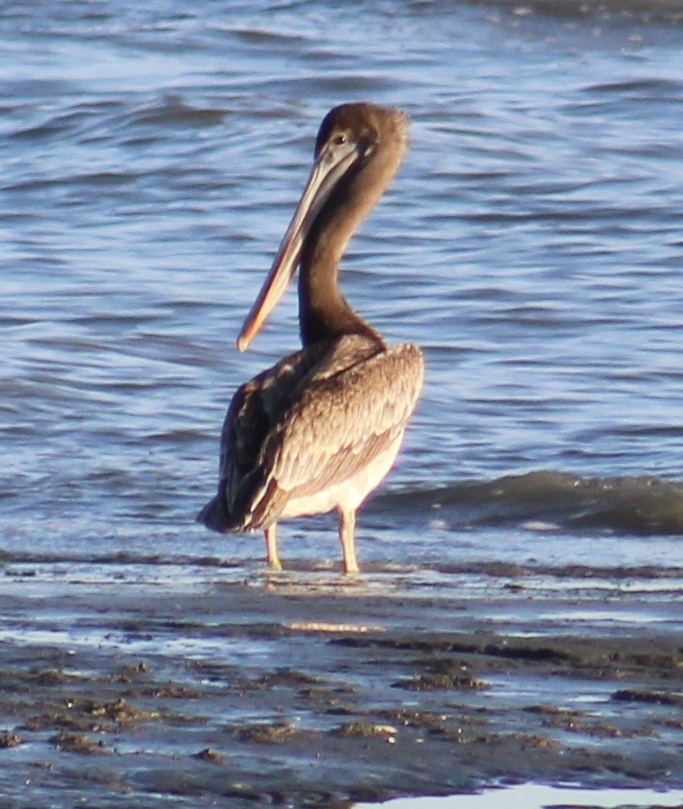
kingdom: Animalia
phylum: Chordata
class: Aves
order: Pelecaniformes
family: Pelecanidae
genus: Pelecanus
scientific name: Pelecanus occidentalis
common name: Brown pelican
